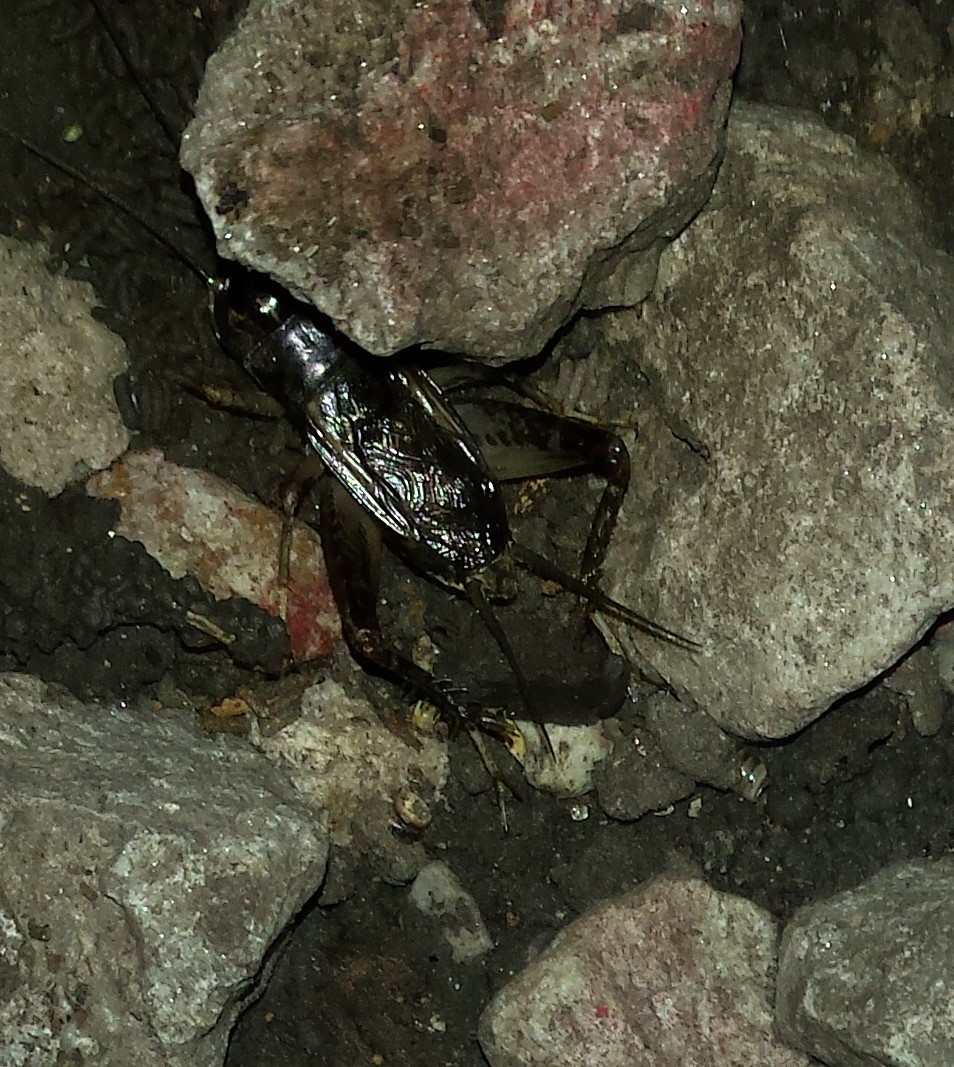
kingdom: Animalia
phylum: Arthropoda
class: Insecta
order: Orthoptera
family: Gryllidae
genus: Velarifictorus
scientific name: Velarifictorus micado
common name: Japanese burrowing cricket
